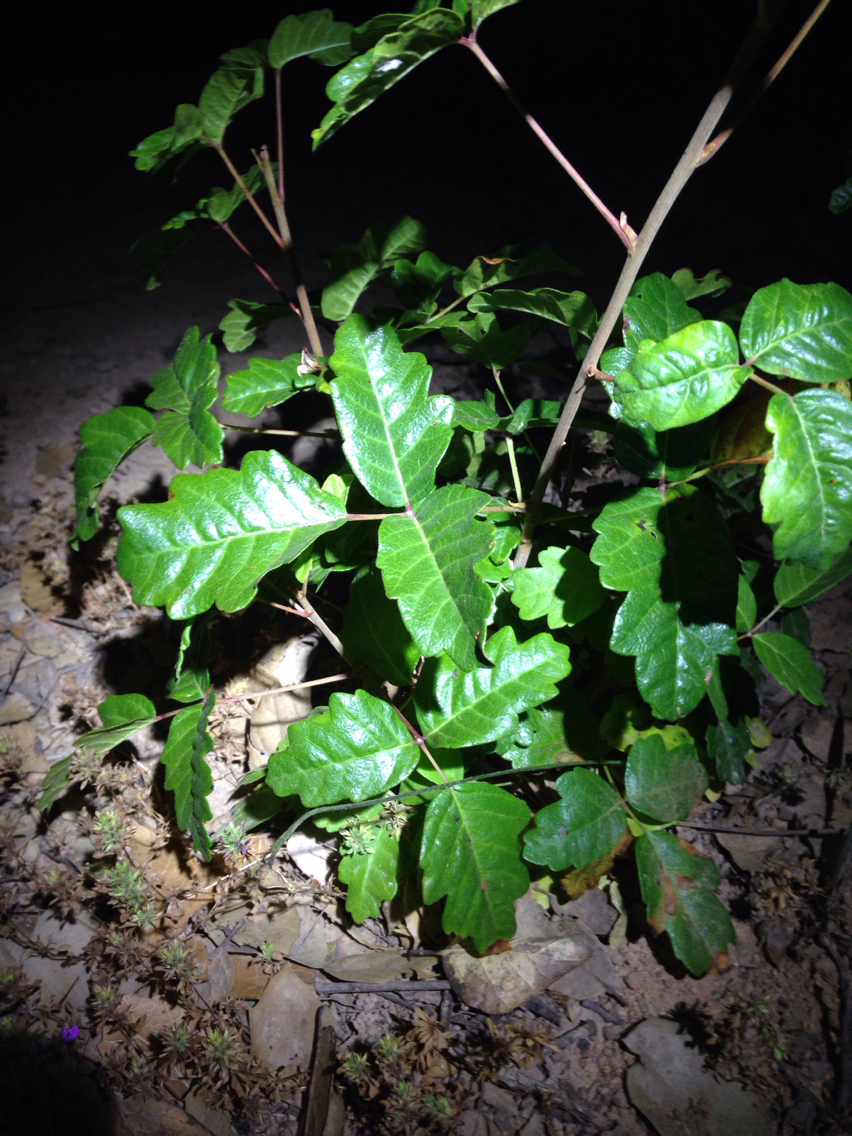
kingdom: Plantae
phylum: Tracheophyta
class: Magnoliopsida
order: Sapindales
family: Anacardiaceae
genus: Toxicodendron
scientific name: Toxicodendron diversilobum
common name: Pacific poison-oak
